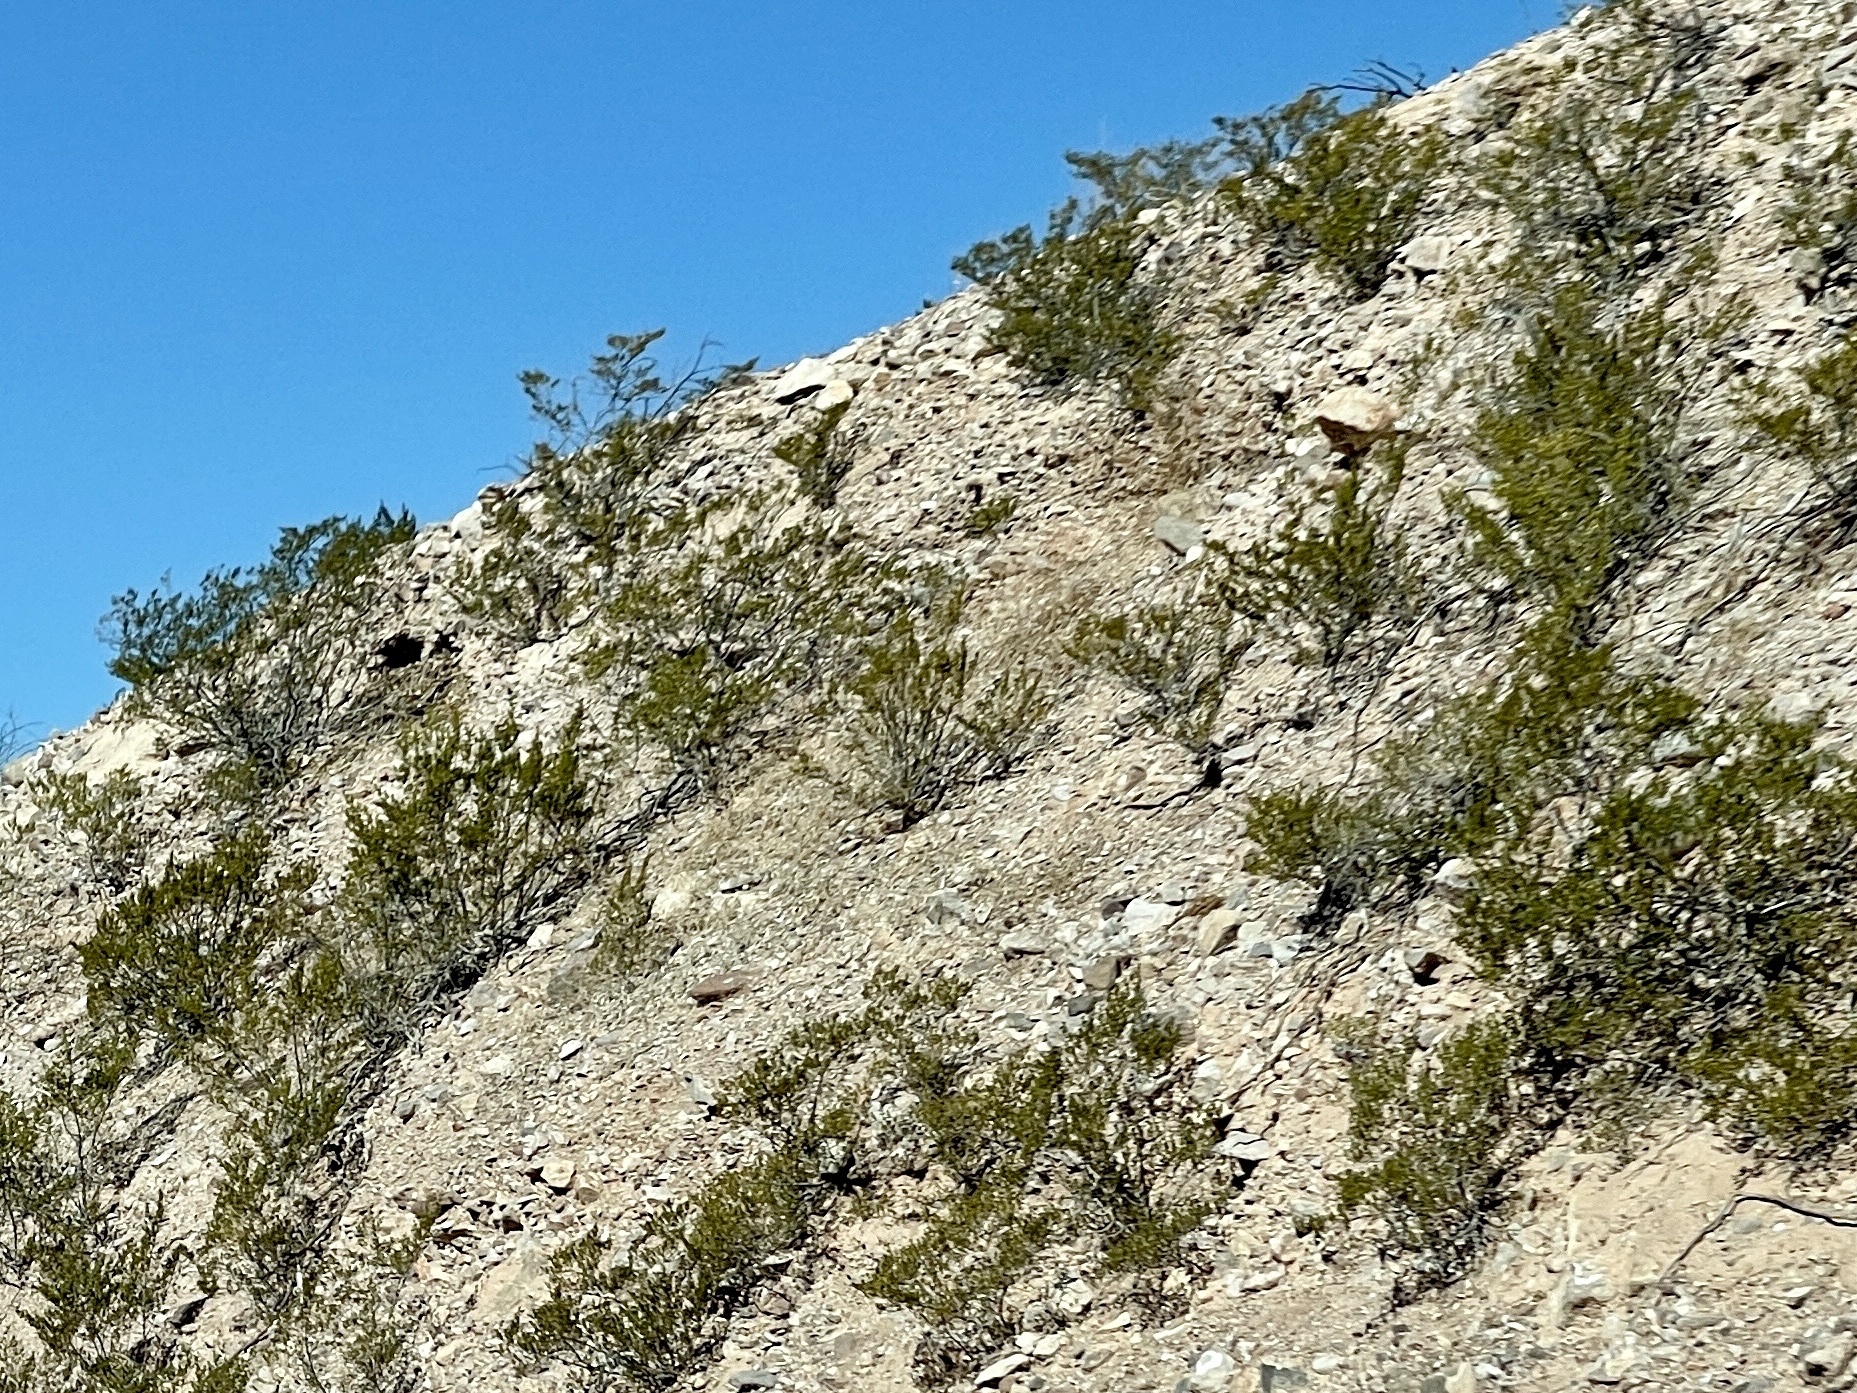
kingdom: Plantae
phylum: Tracheophyta
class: Magnoliopsida
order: Zygophyllales
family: Zygophyllaceae
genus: Larrea
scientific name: Larrea tridentata
